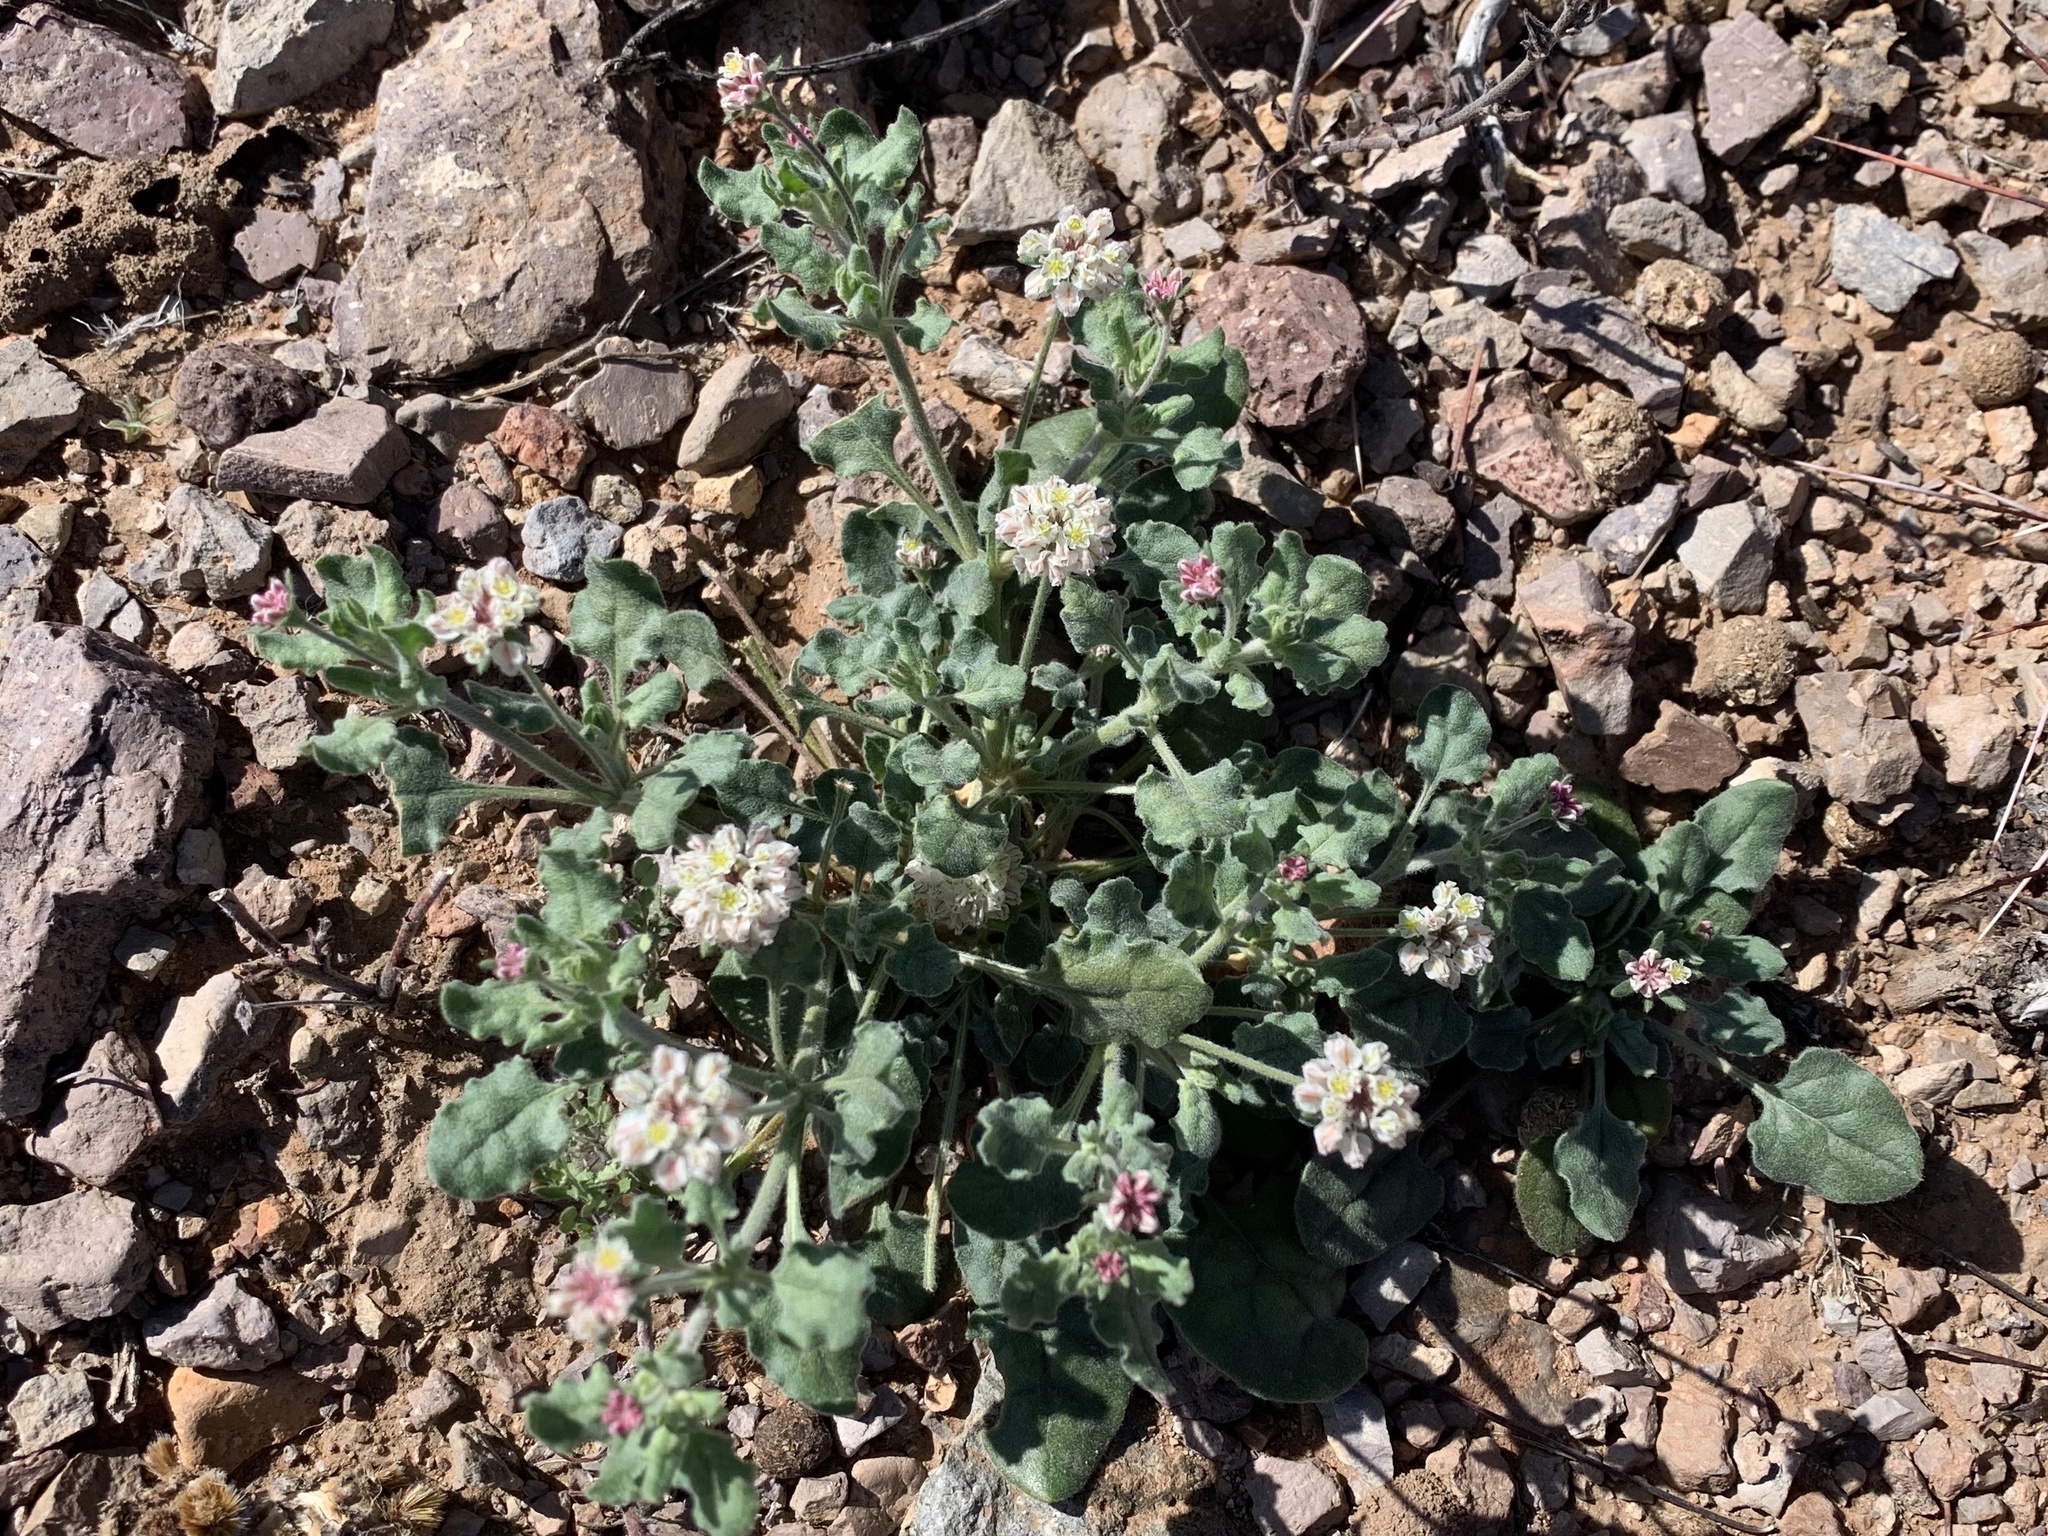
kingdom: Plantae
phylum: Tracheophyta
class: Magnoliopsida
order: Caryophyllales
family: Polygonaceae
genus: Eriogonum
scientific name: Eriogonum abertianum
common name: Abert's wild buckwheat
